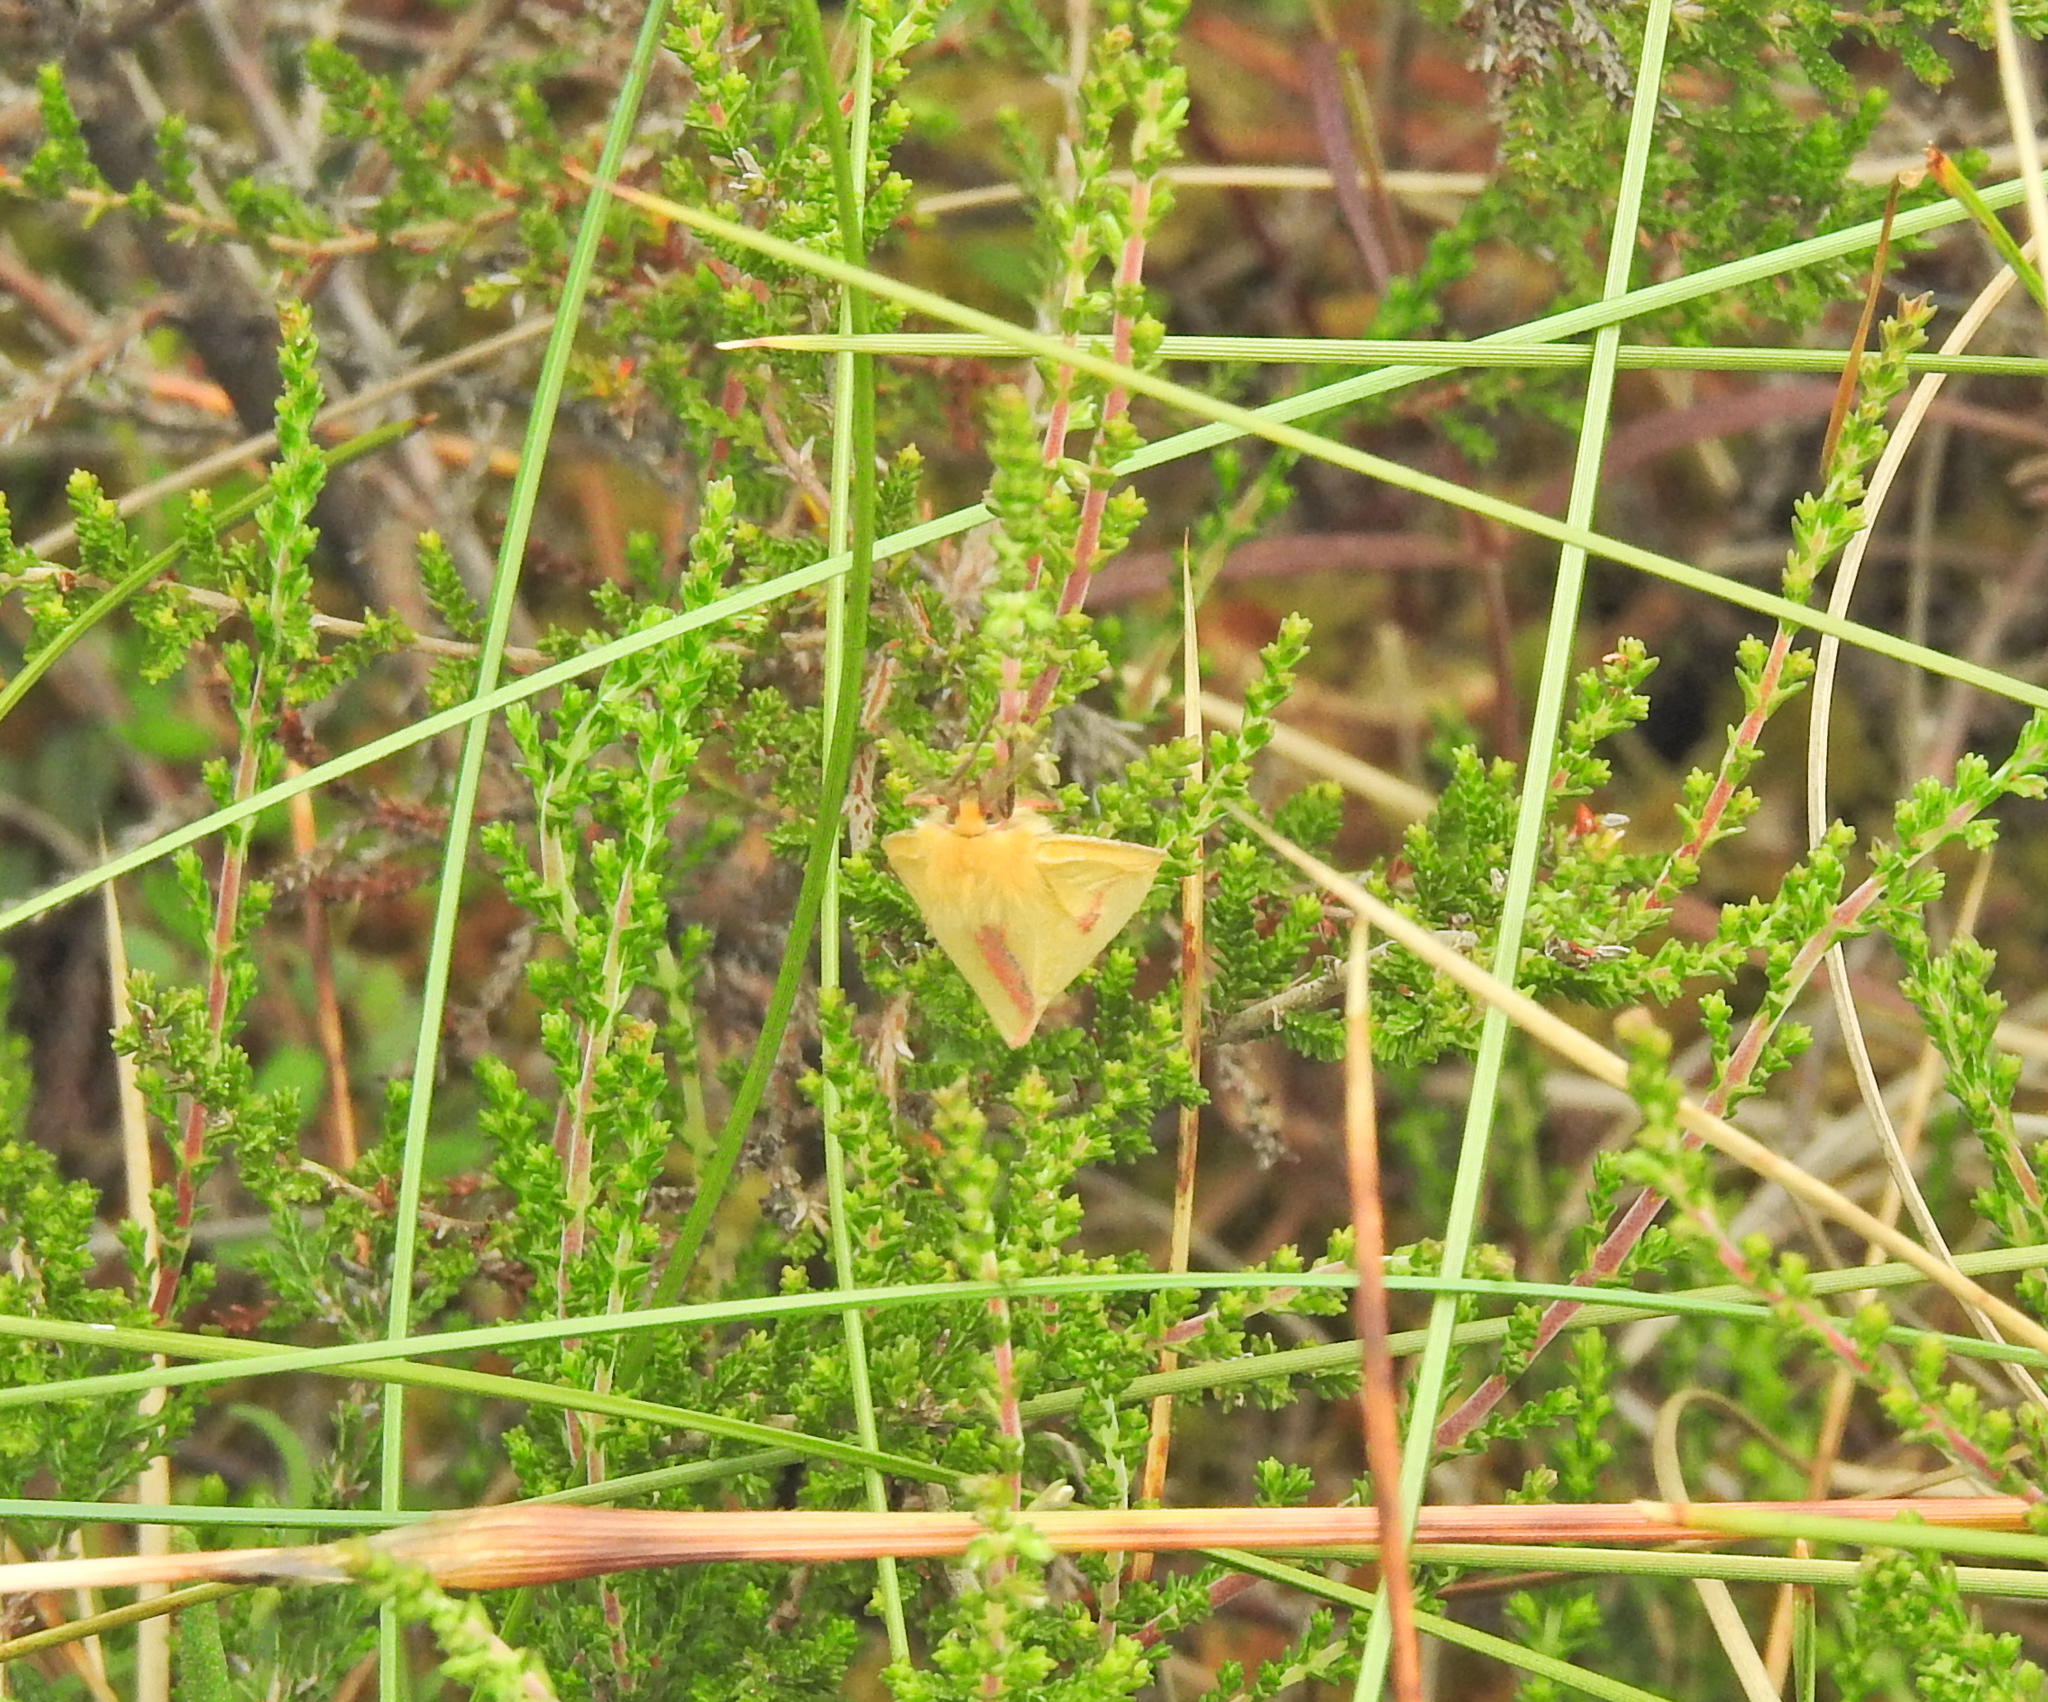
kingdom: Animalia
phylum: Arthropoda
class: Insecta
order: Lepidoptera
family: Erebidae
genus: Diacrisia
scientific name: Diacrisia sannio
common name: Clouded buff
